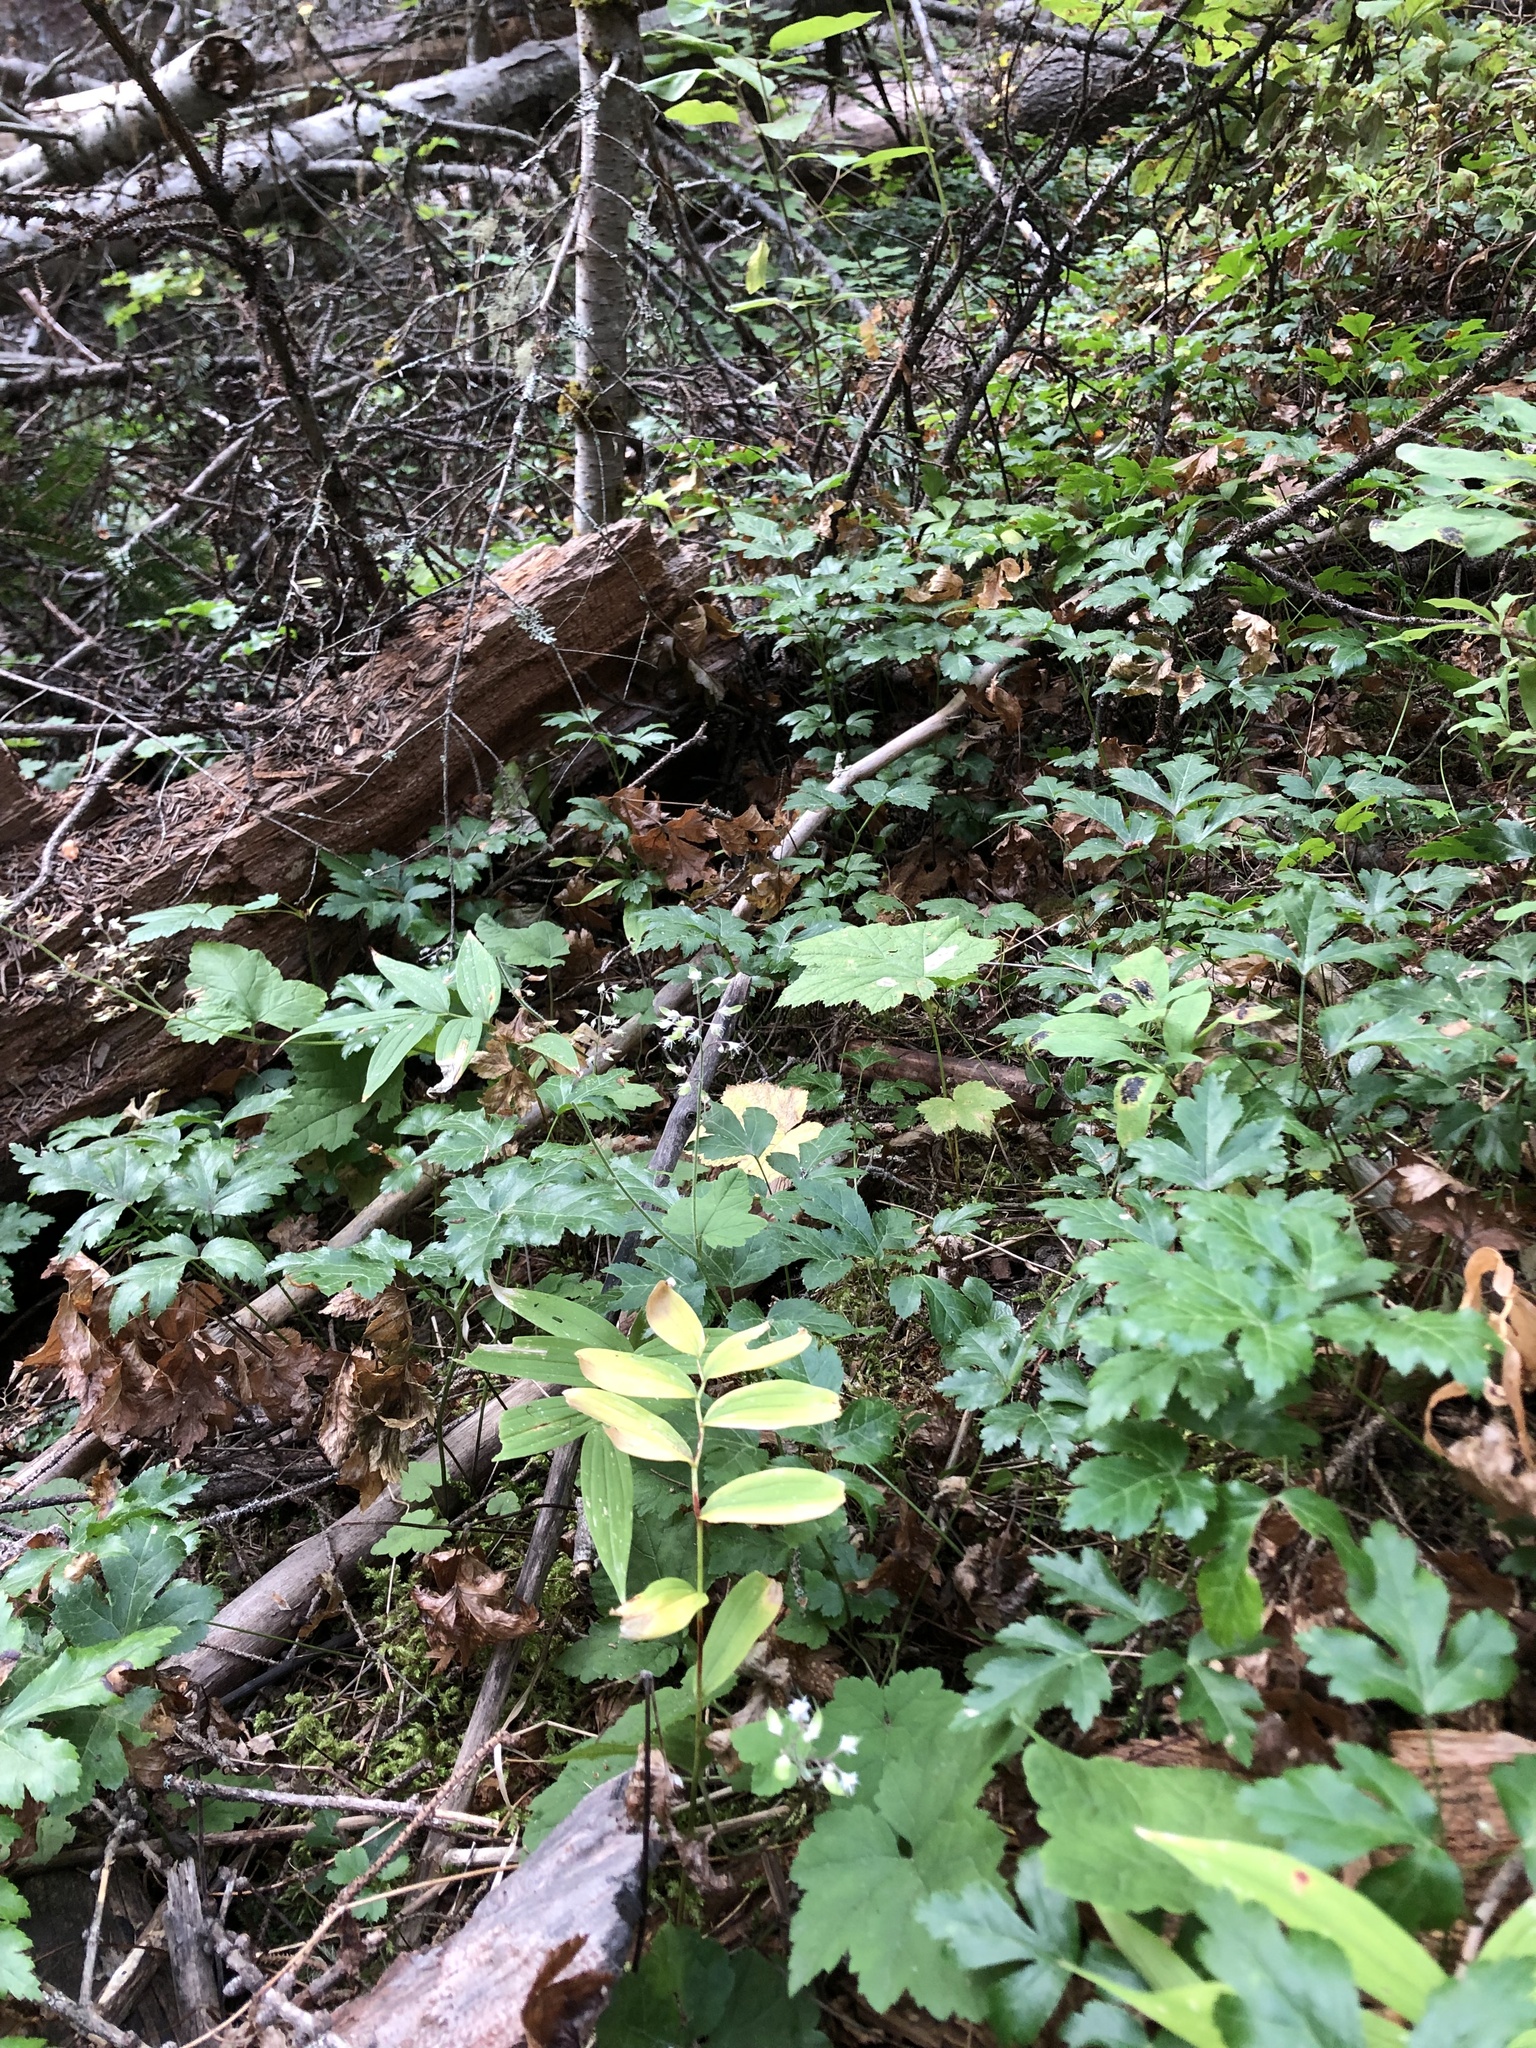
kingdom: Plantae
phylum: Tracheophyta
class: Magnoliopsida
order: Saxifragales
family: Saxifragaceae
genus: Tiarella
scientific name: Tiarella trifoliata
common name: Sugar-scoop
